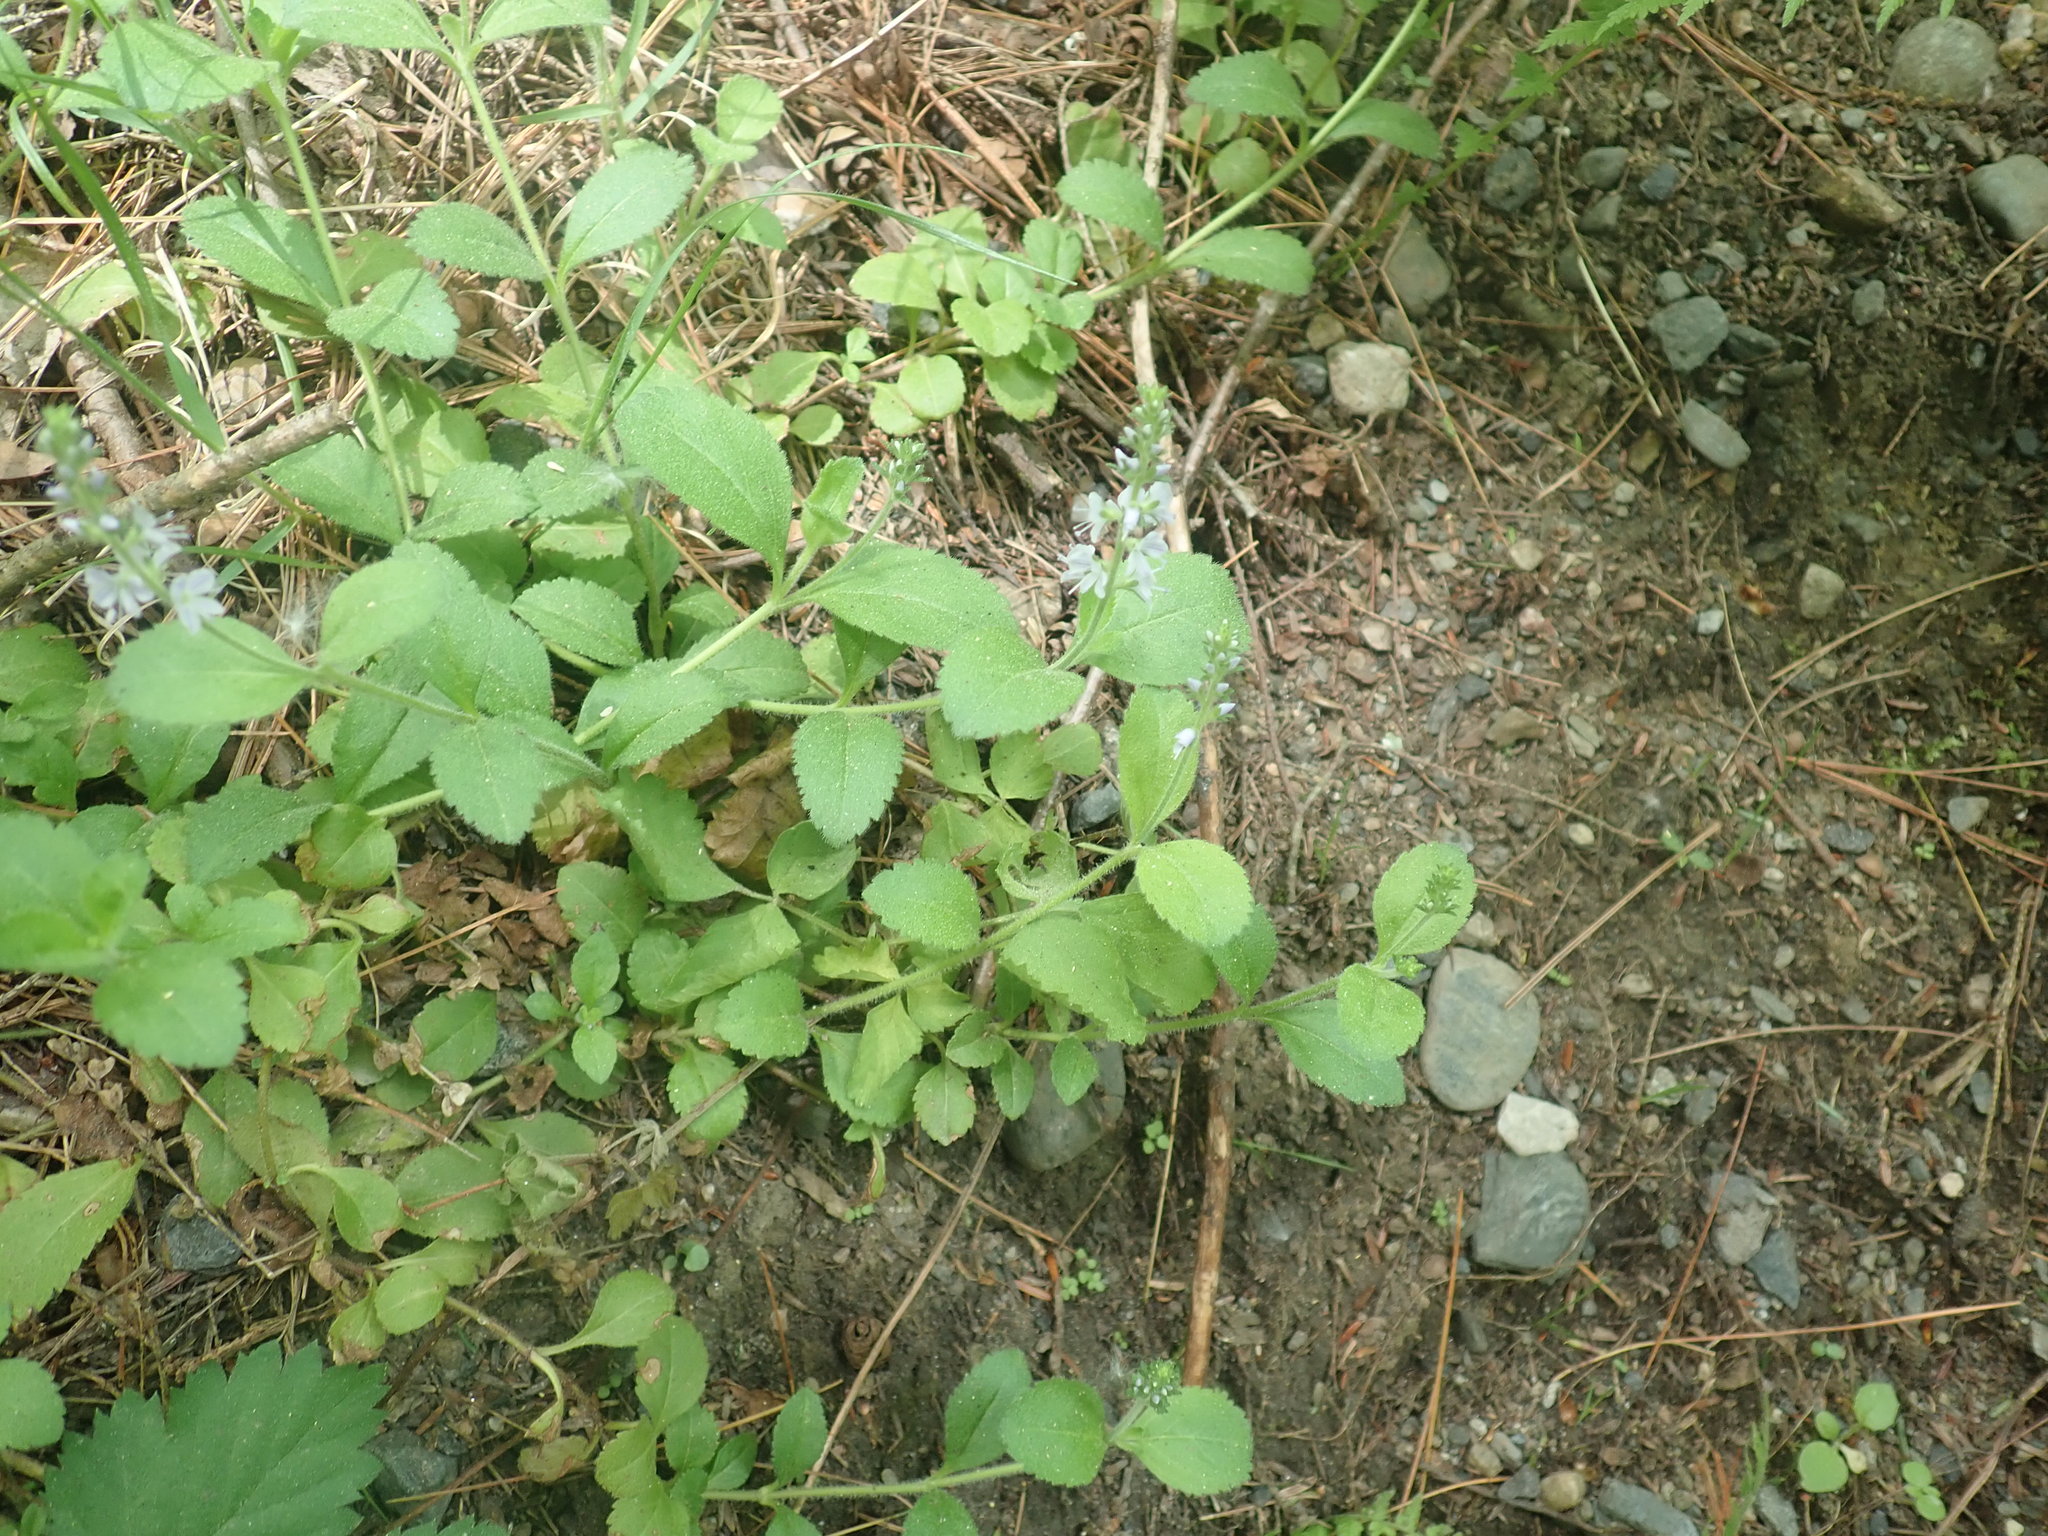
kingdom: Plantae
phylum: Tracheophyta
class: Magnoliopsida
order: Lamiales
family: Plantaginaceae
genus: Veronica
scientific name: Veronica officinalis
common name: Common speedwell
